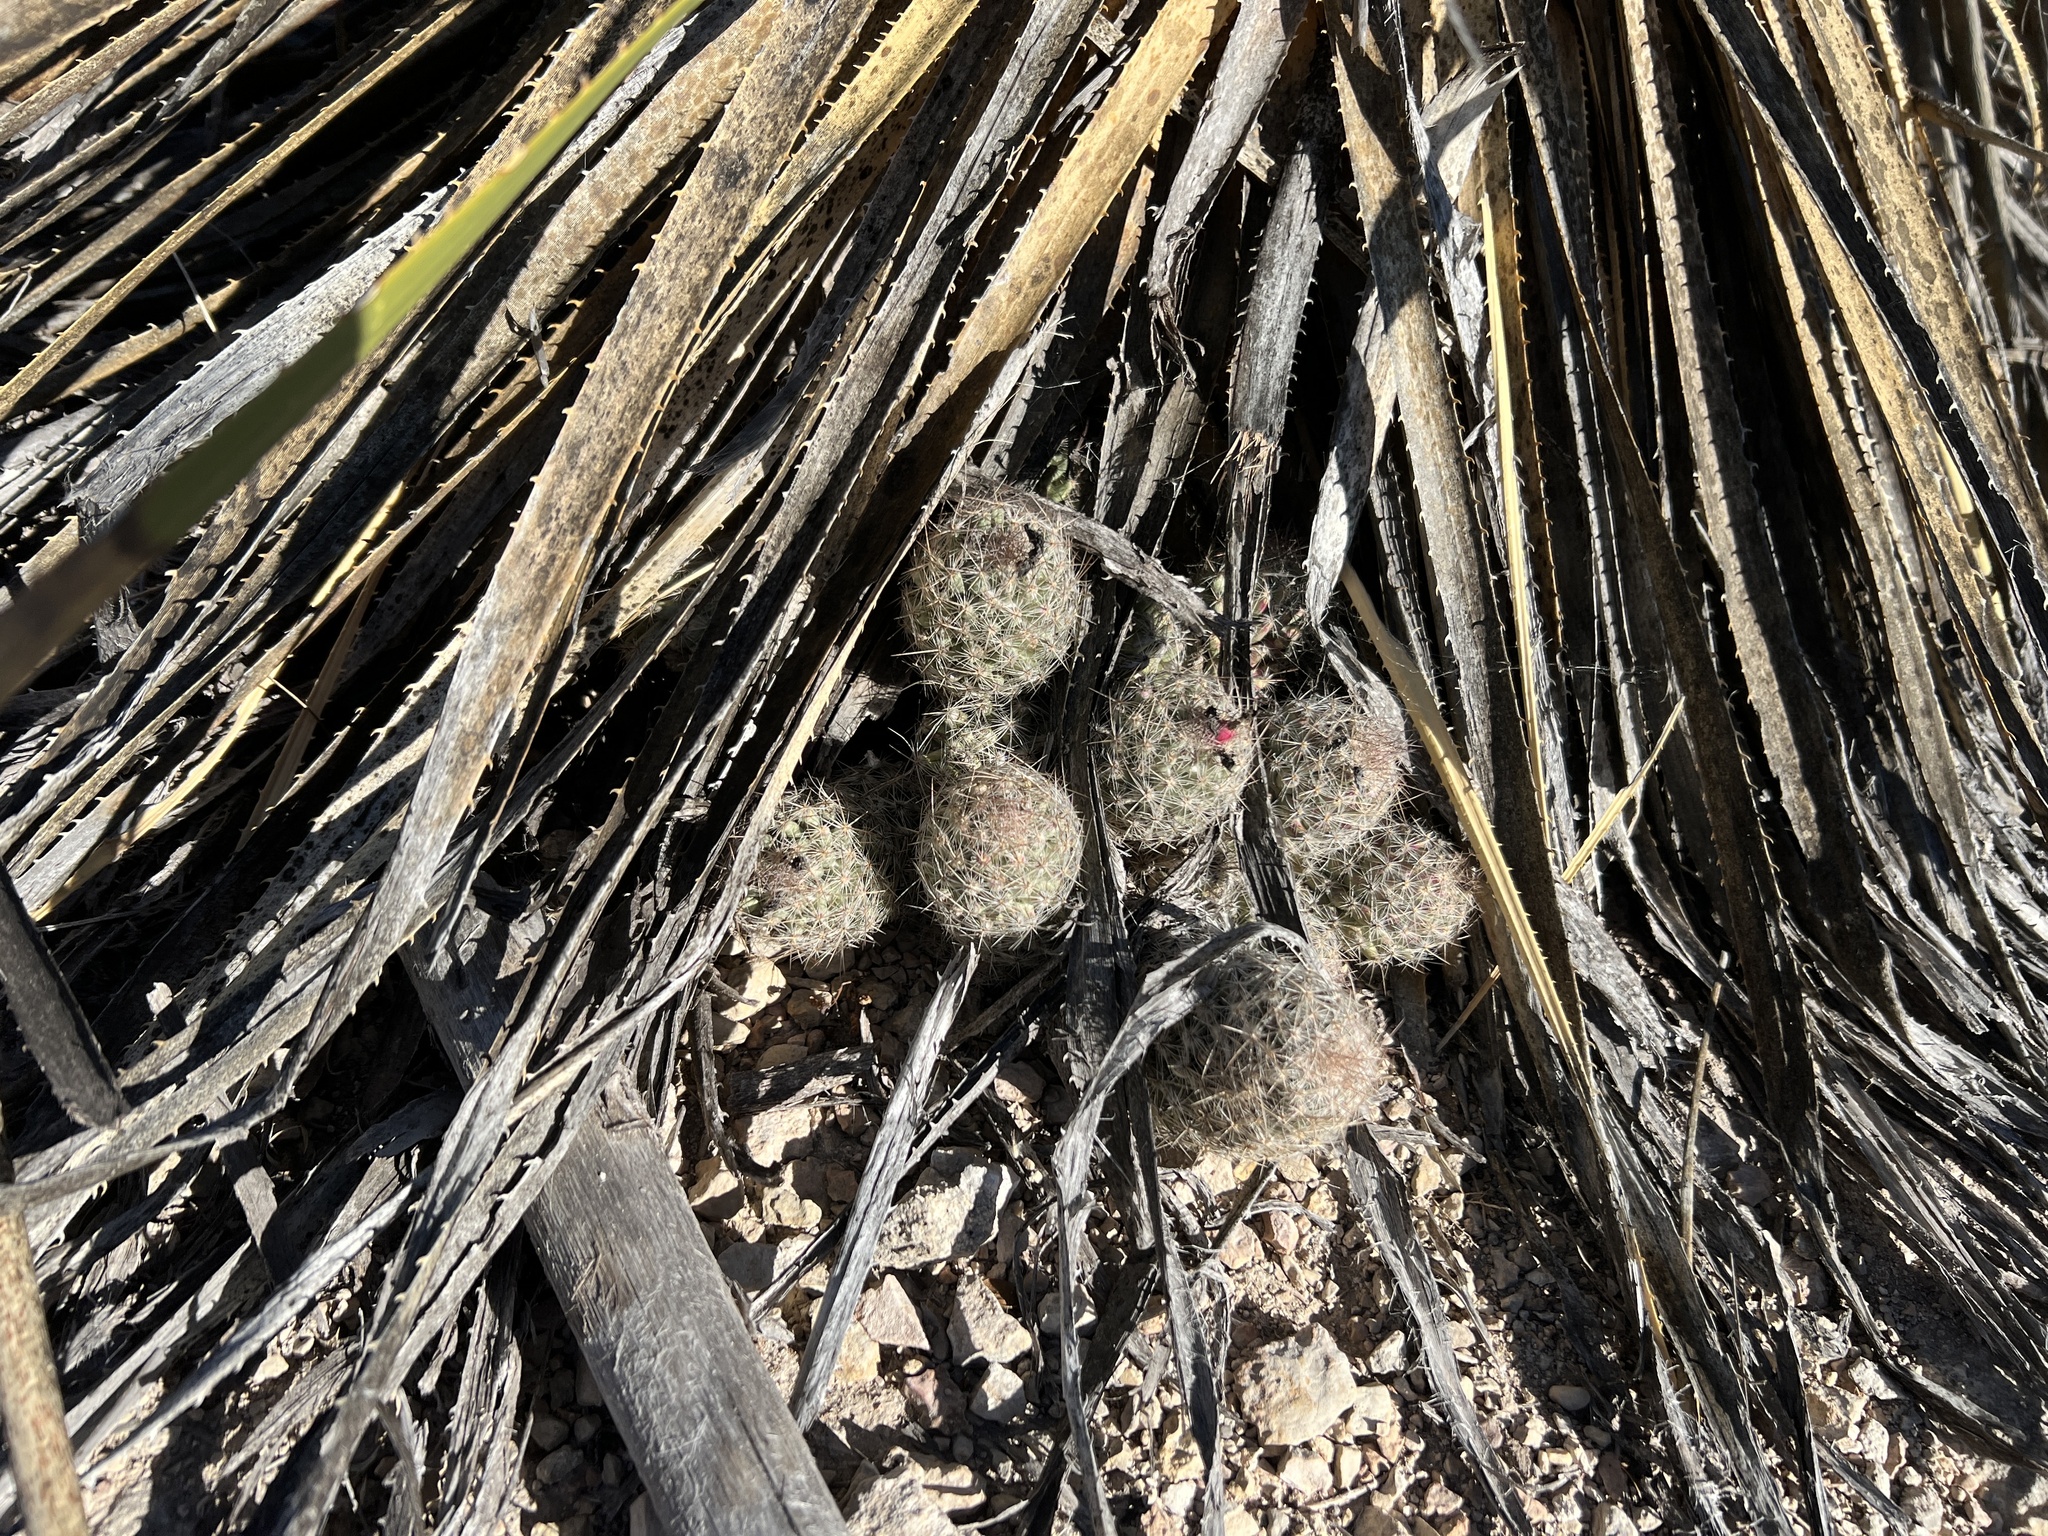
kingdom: Plantae
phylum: Tracheophyta
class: Magnoliopsida
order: Caryophyllales
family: Cactaceae
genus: Pelecyphora
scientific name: Pelecyphora tuberculosa
